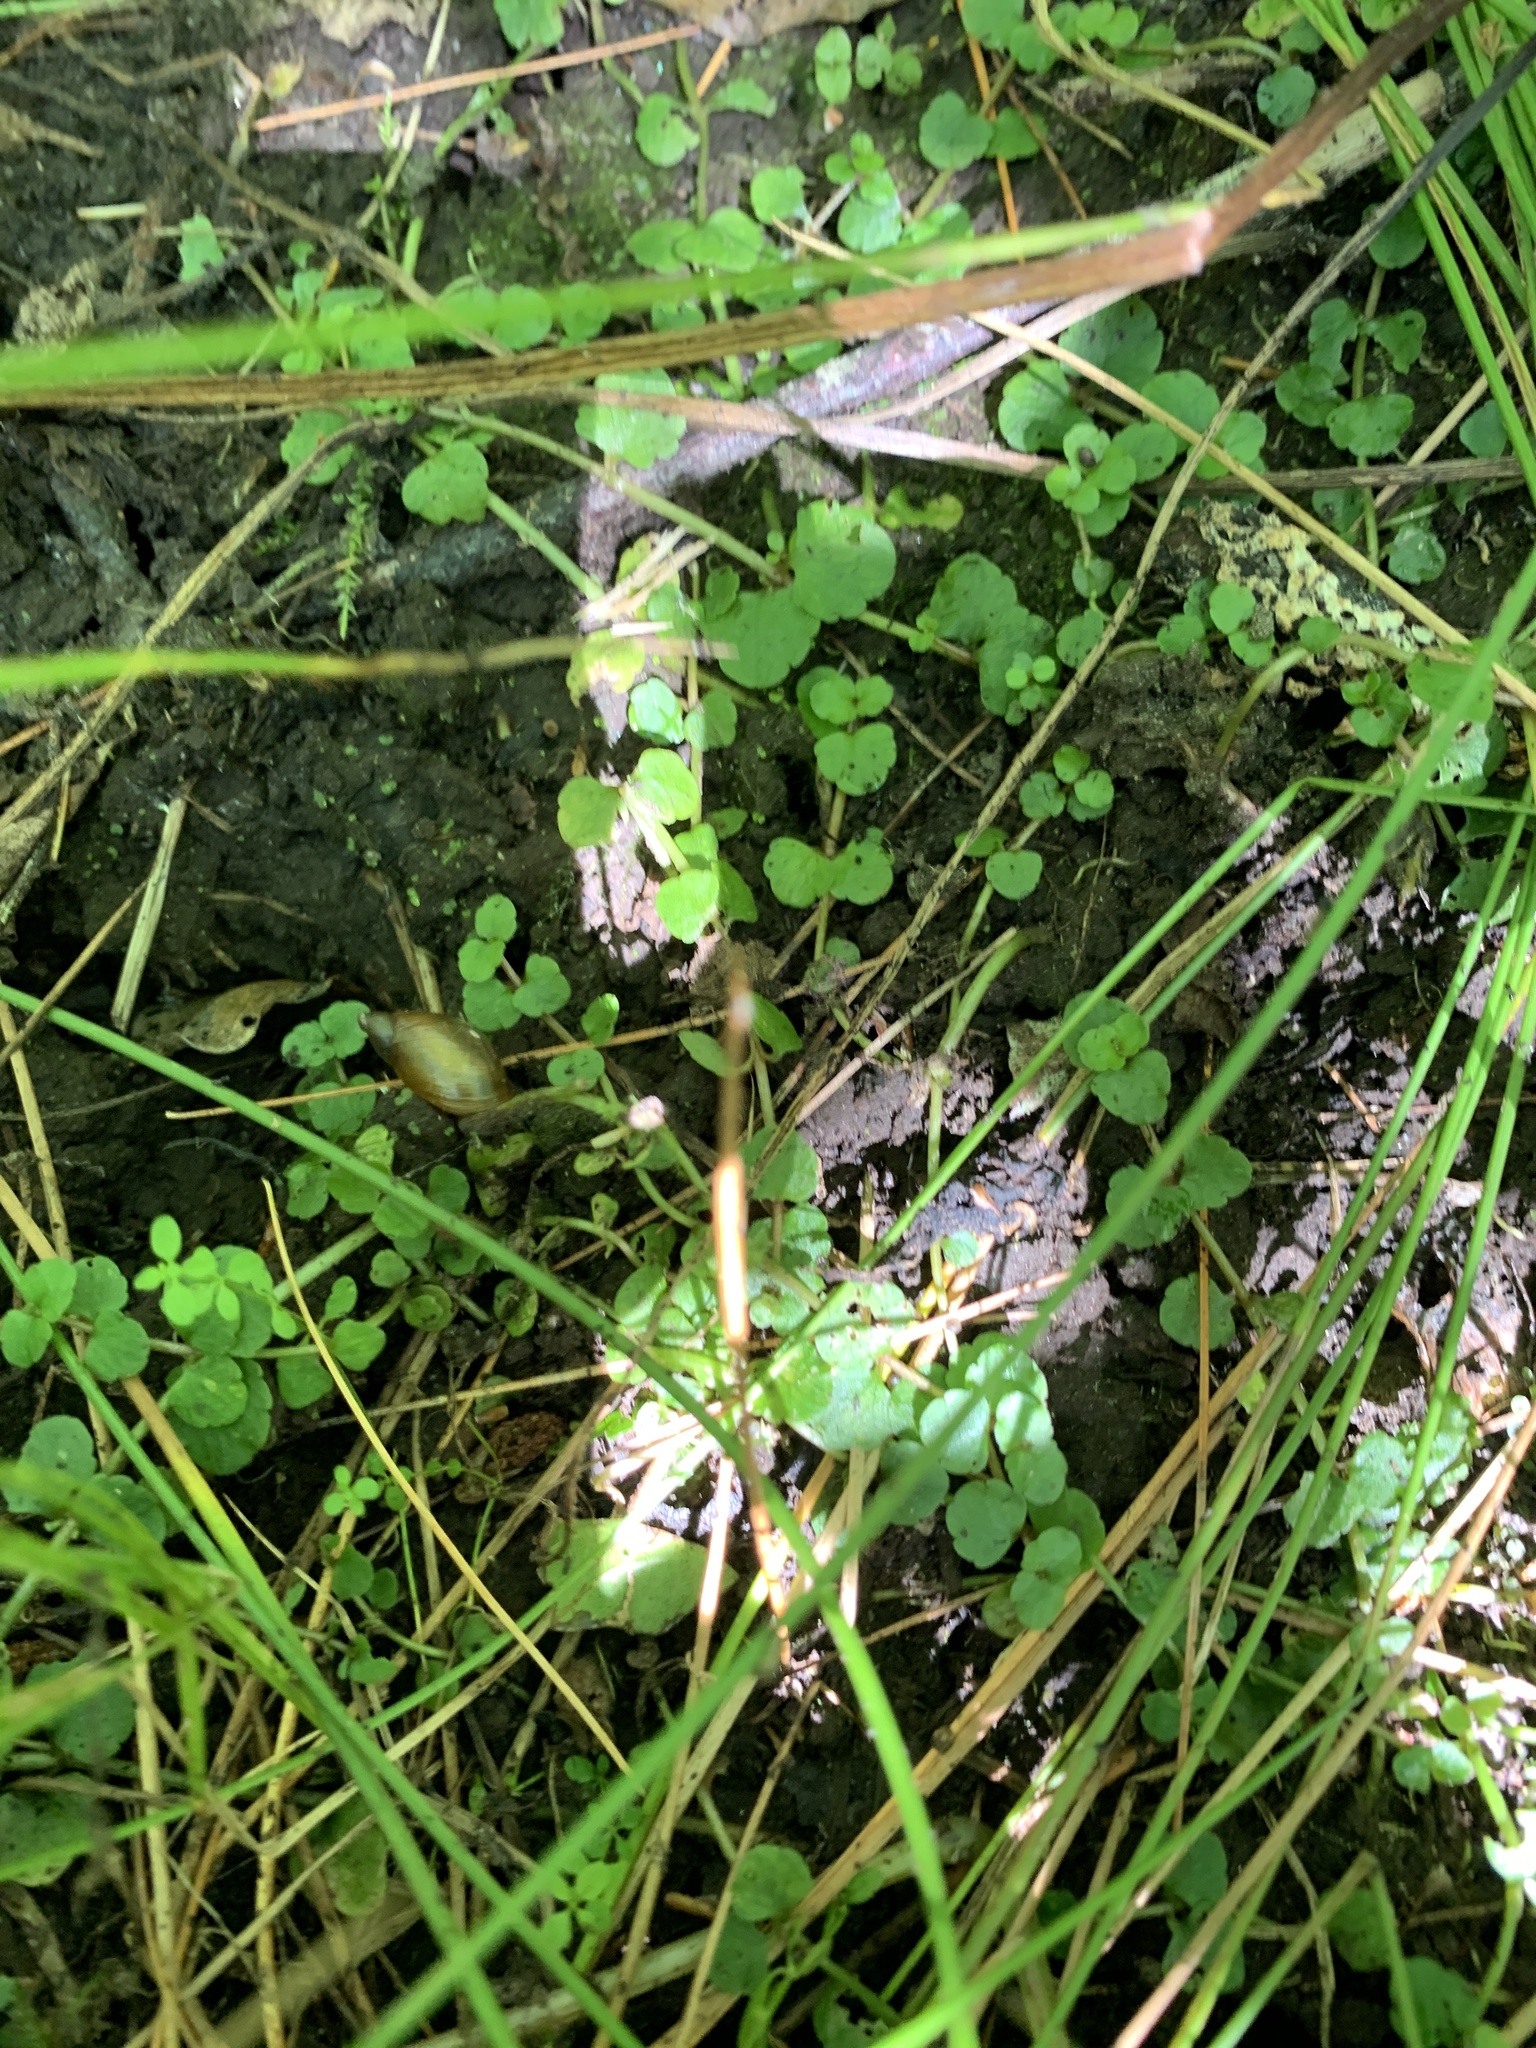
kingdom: Plantae
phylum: Tracheophyta
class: Magnoliopsida
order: Saxifragales
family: Saxifragaceae
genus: Chrysosplenium
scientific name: Chrysosplenium americanum
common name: American golden-saxifrage
